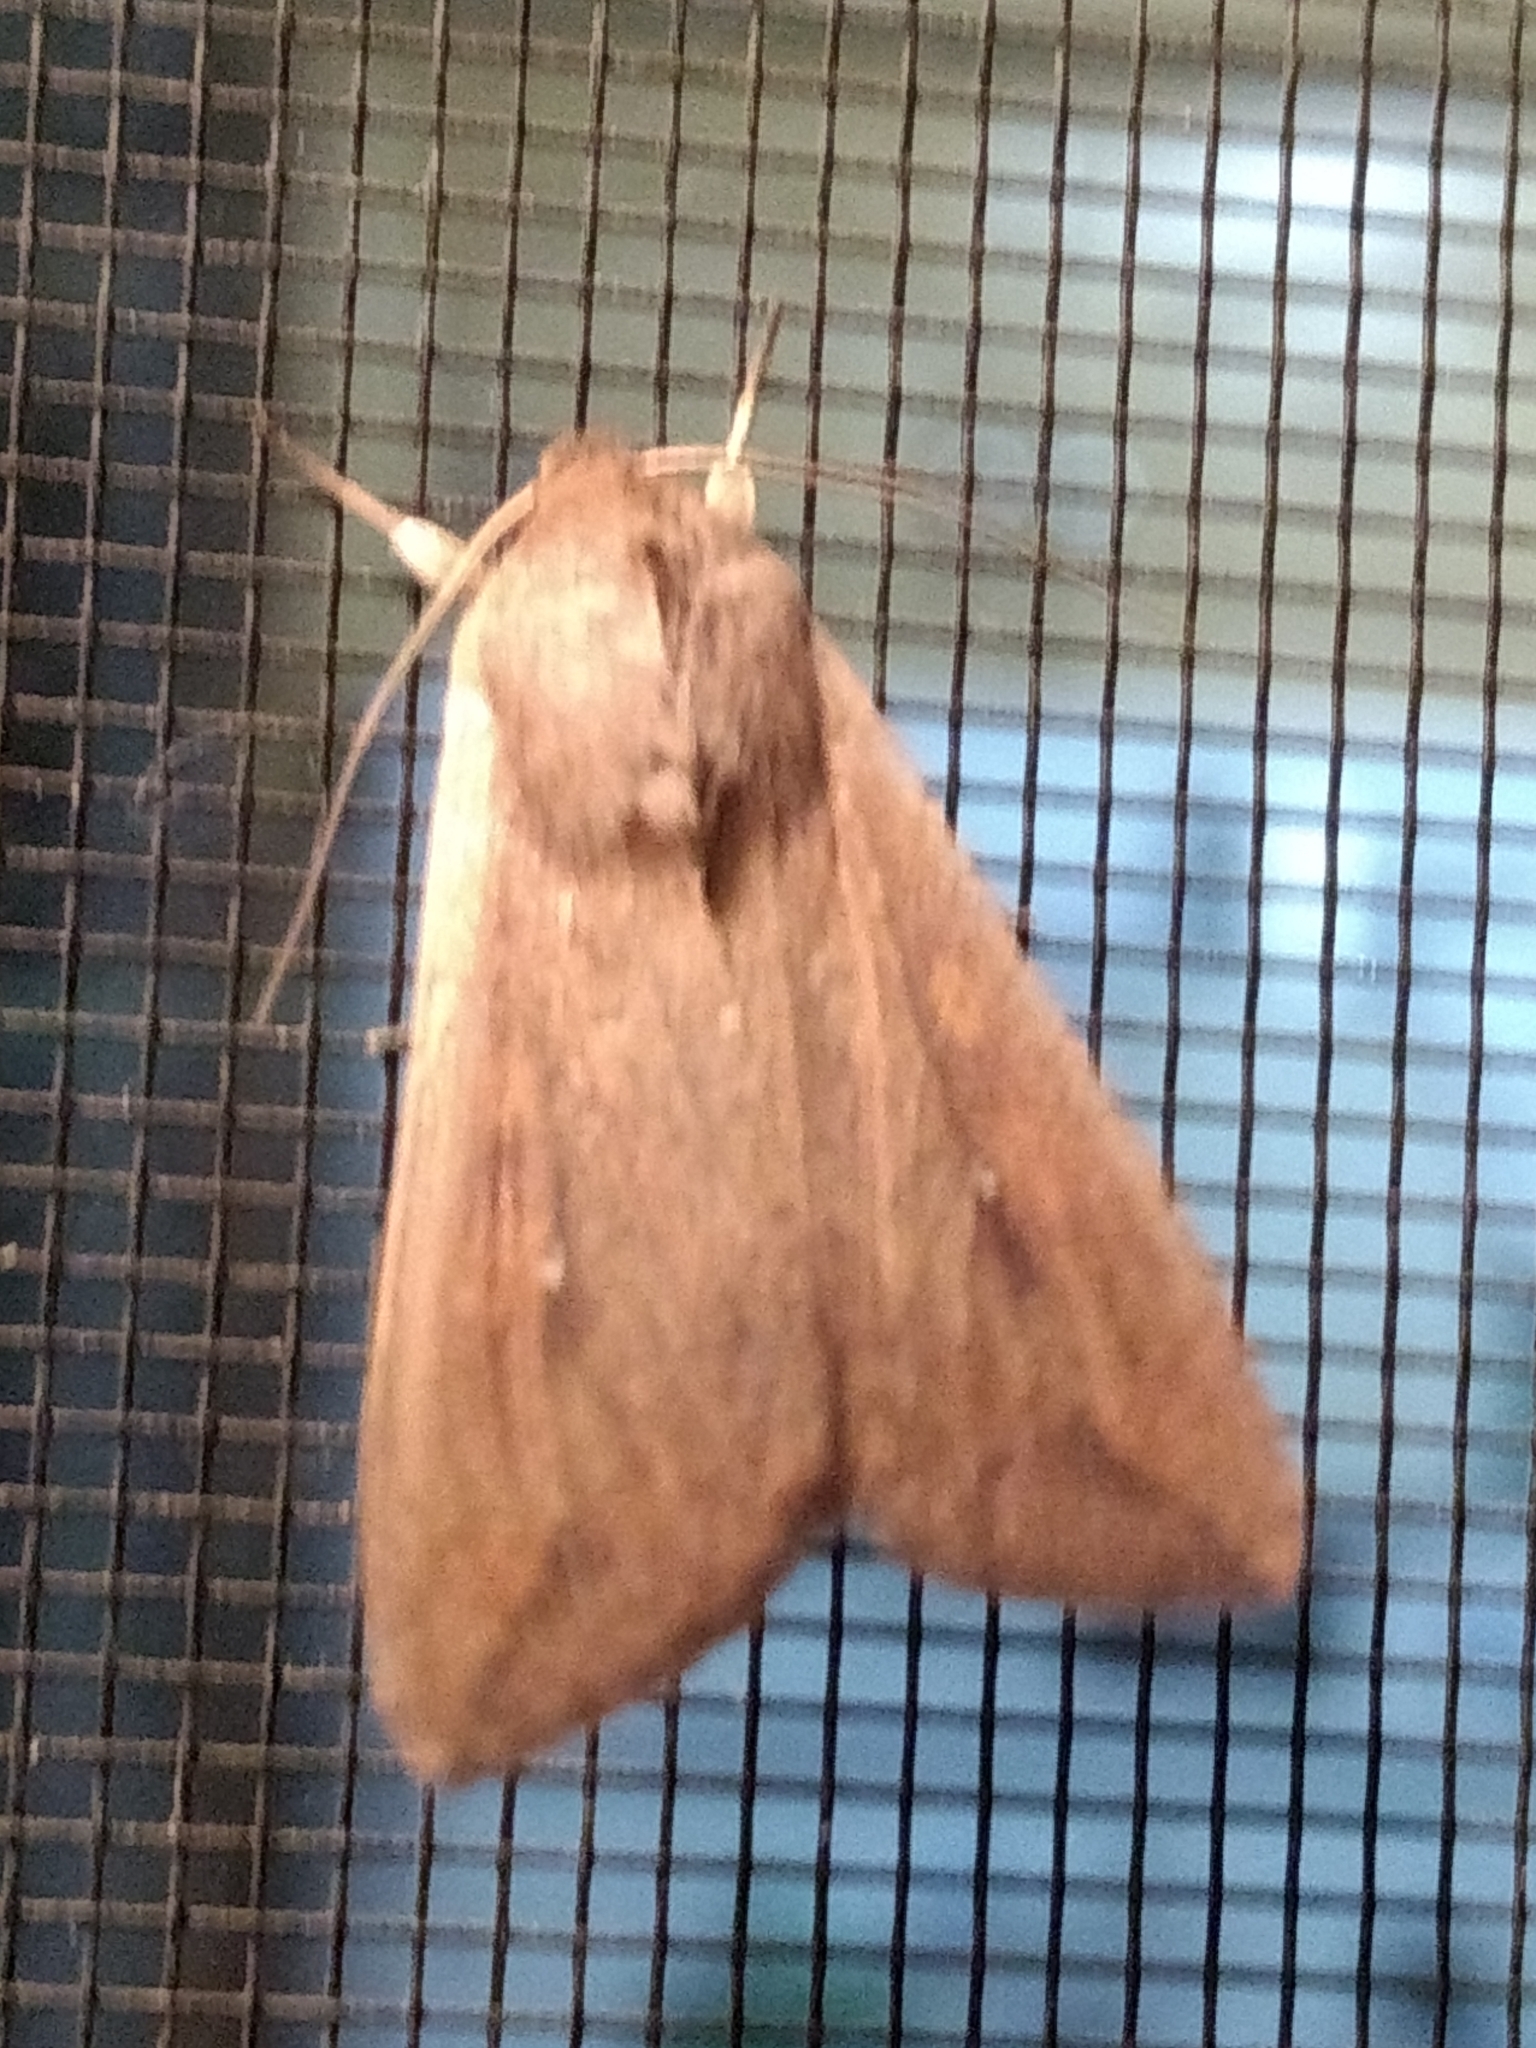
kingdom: Animalia
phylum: Arthropoda
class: Insecta
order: Lepidoptera
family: Noctuidae
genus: Mythimna
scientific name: Mythimna unipuncta
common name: White-speck
